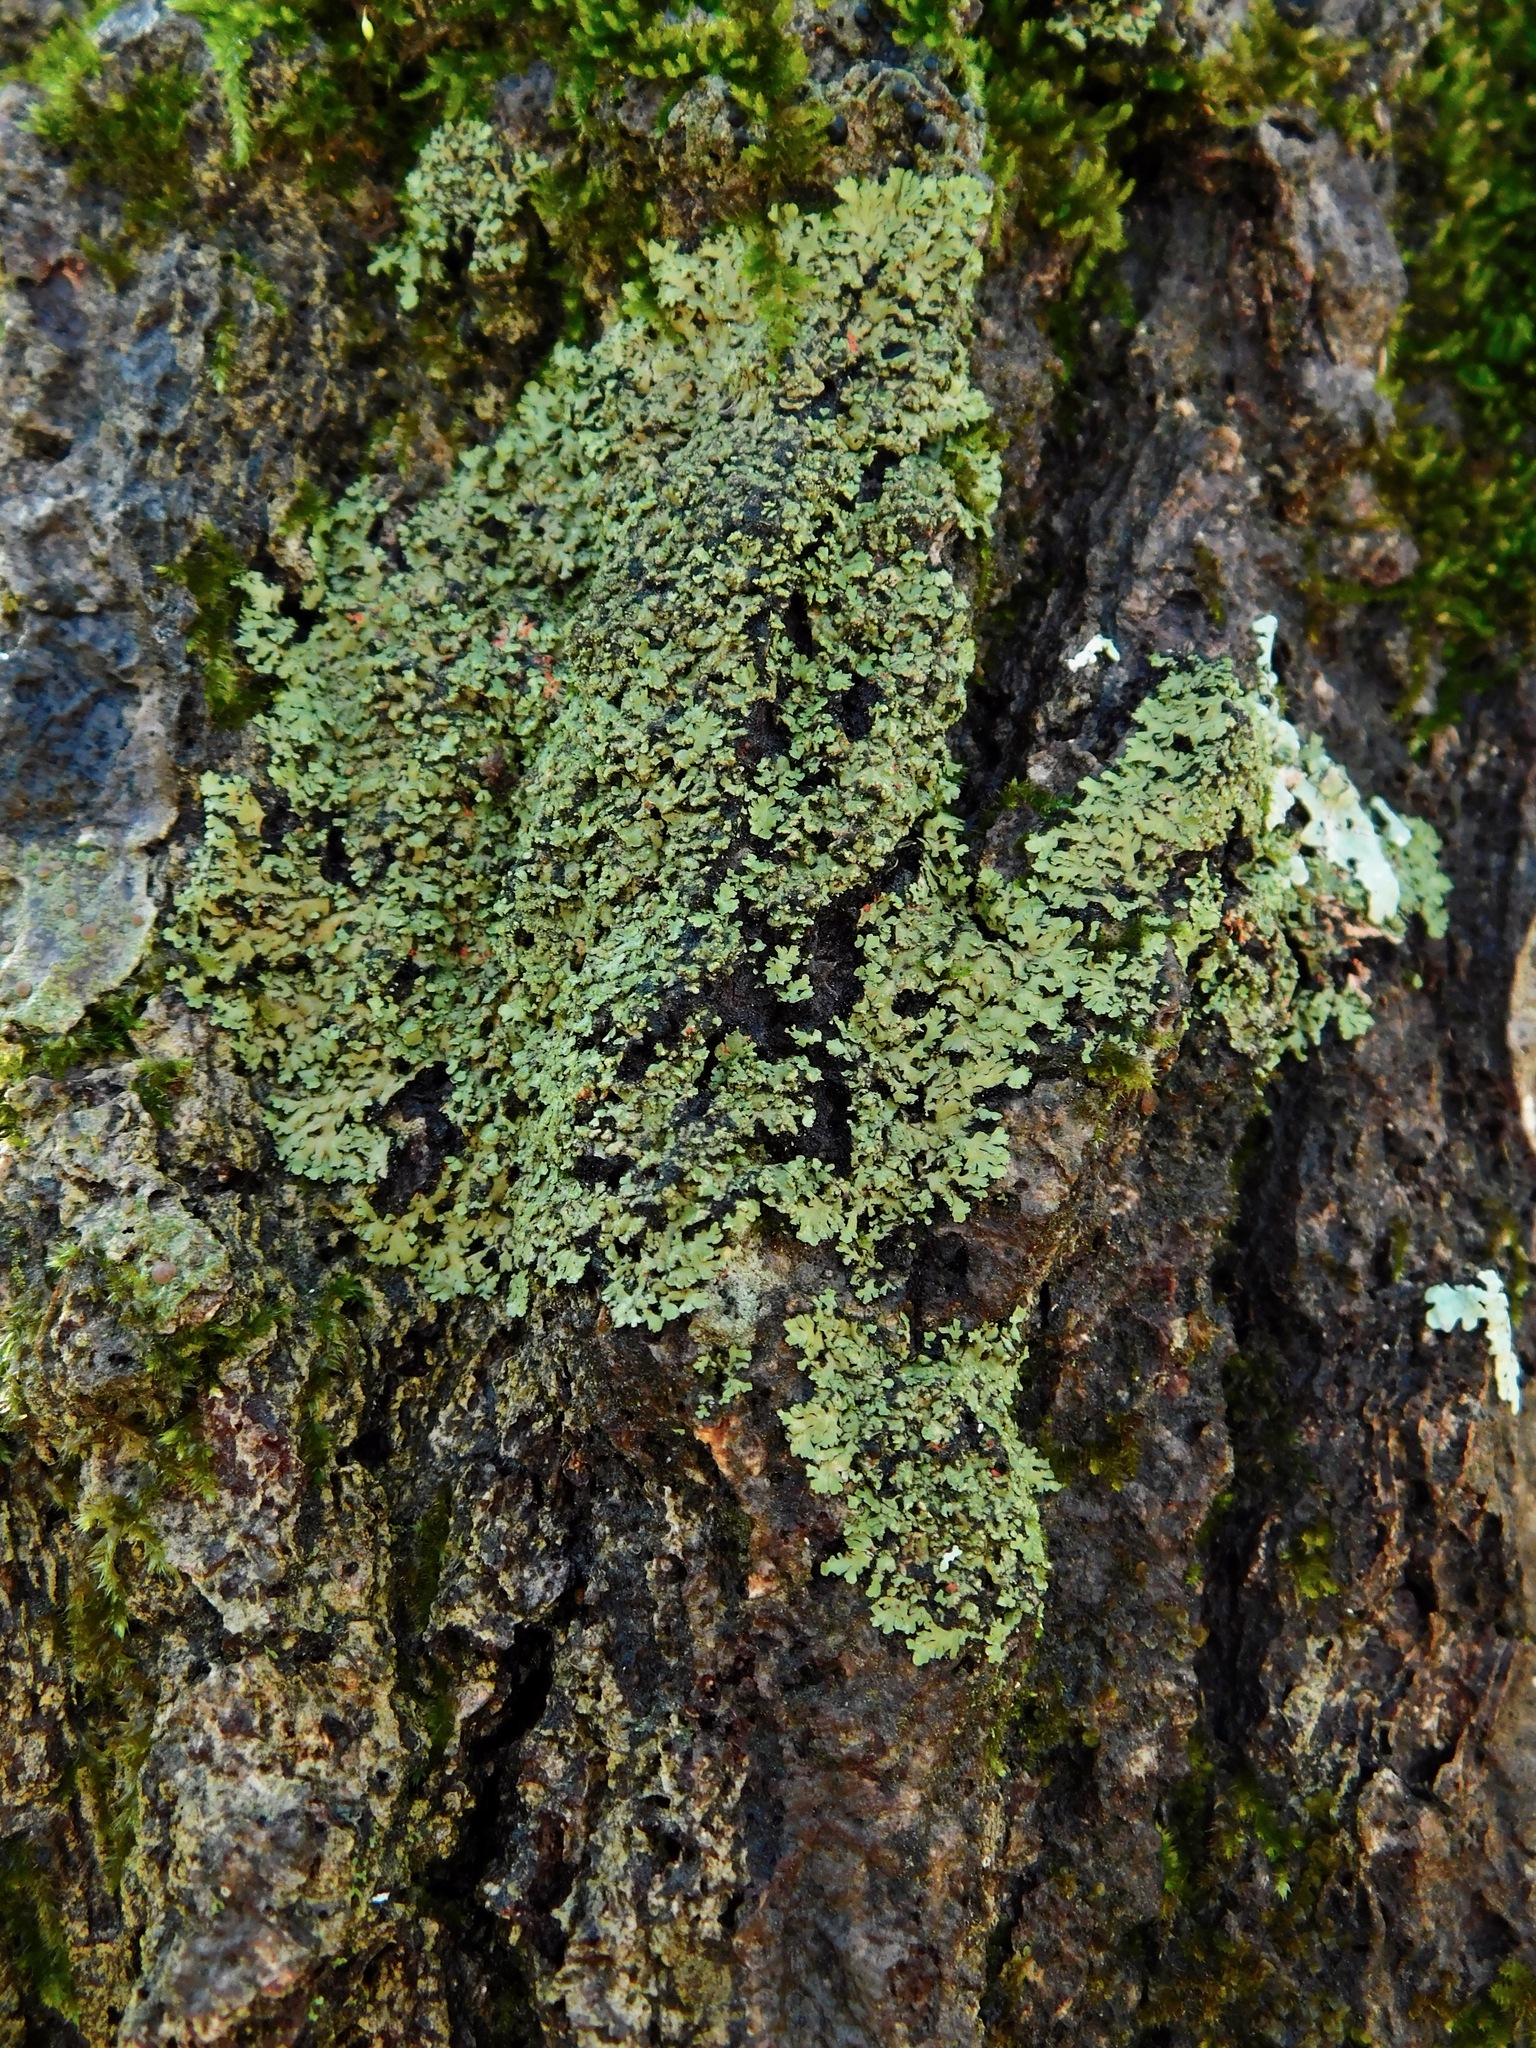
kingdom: Fungi
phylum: Ascomycota
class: Lecanoromycetes
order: Caliciales
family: Physciaceae
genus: Phaeophyscia
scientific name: Phaeophyscia rubropulchra
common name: Orange-cored shadow lichen
